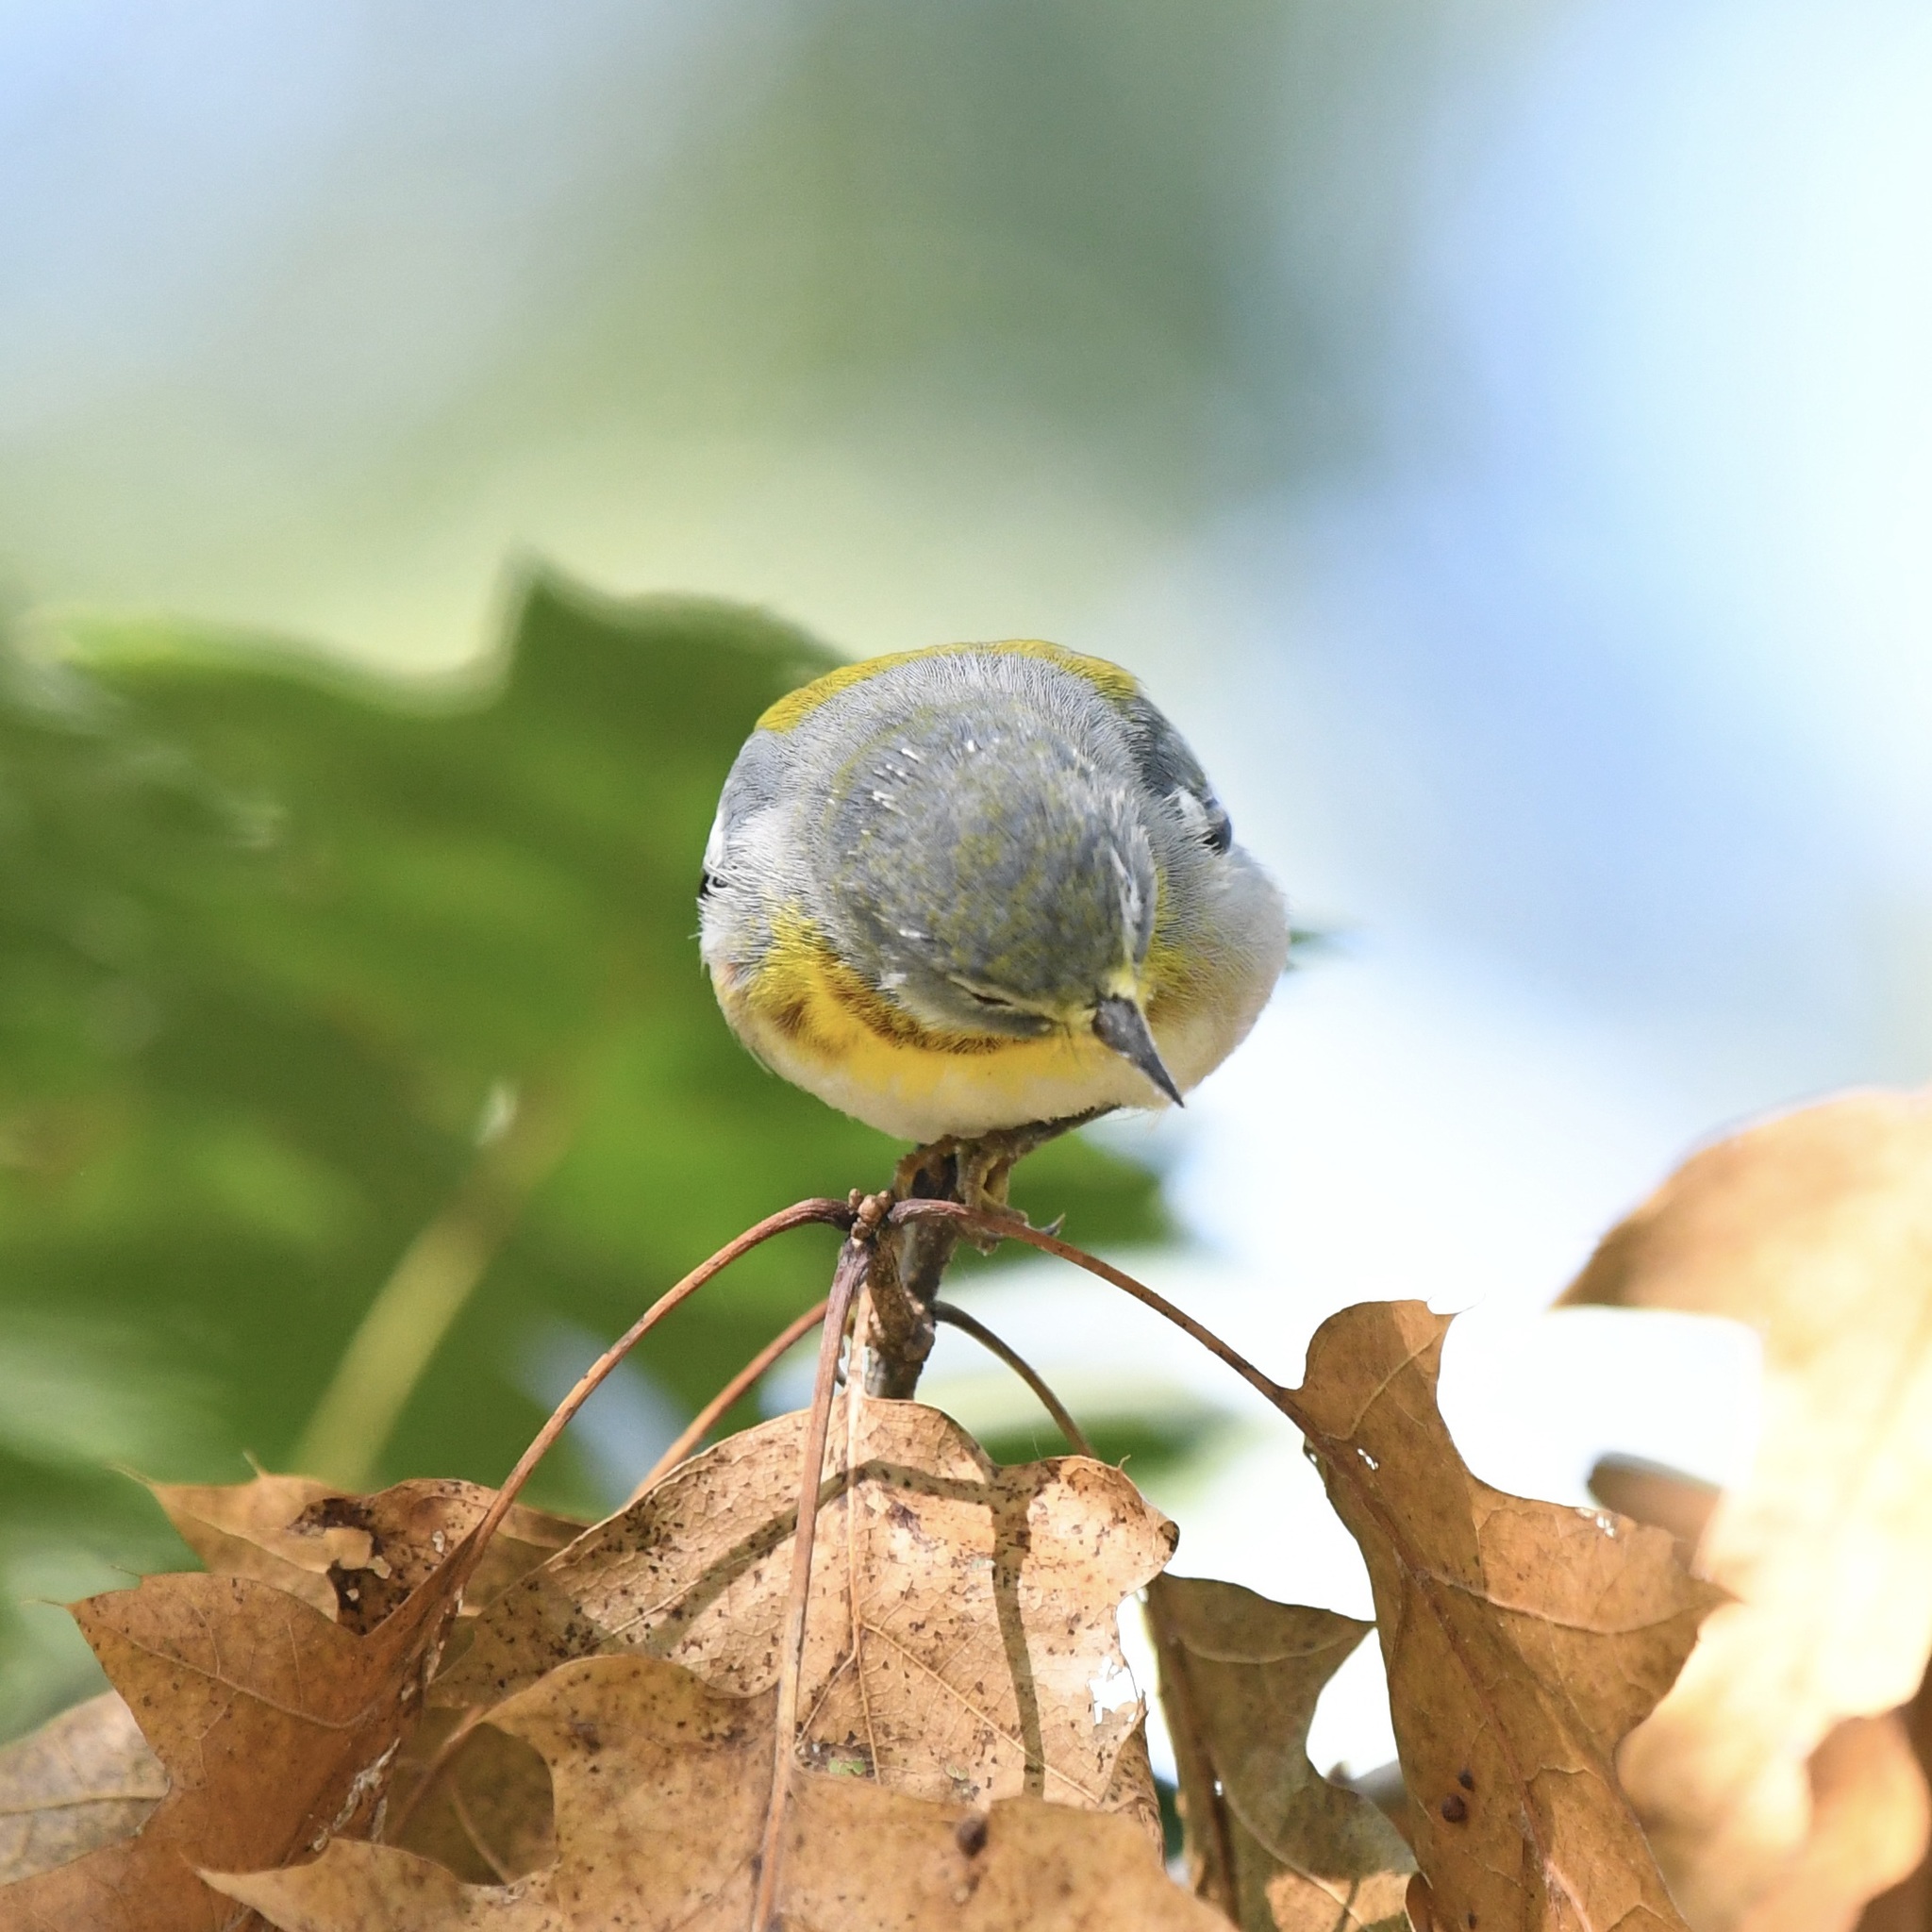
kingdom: Animalia
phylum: Chordata
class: Aves
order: Passeriformes
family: Parulidae
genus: Setophaga
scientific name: Setophaga americana
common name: Northern parula
